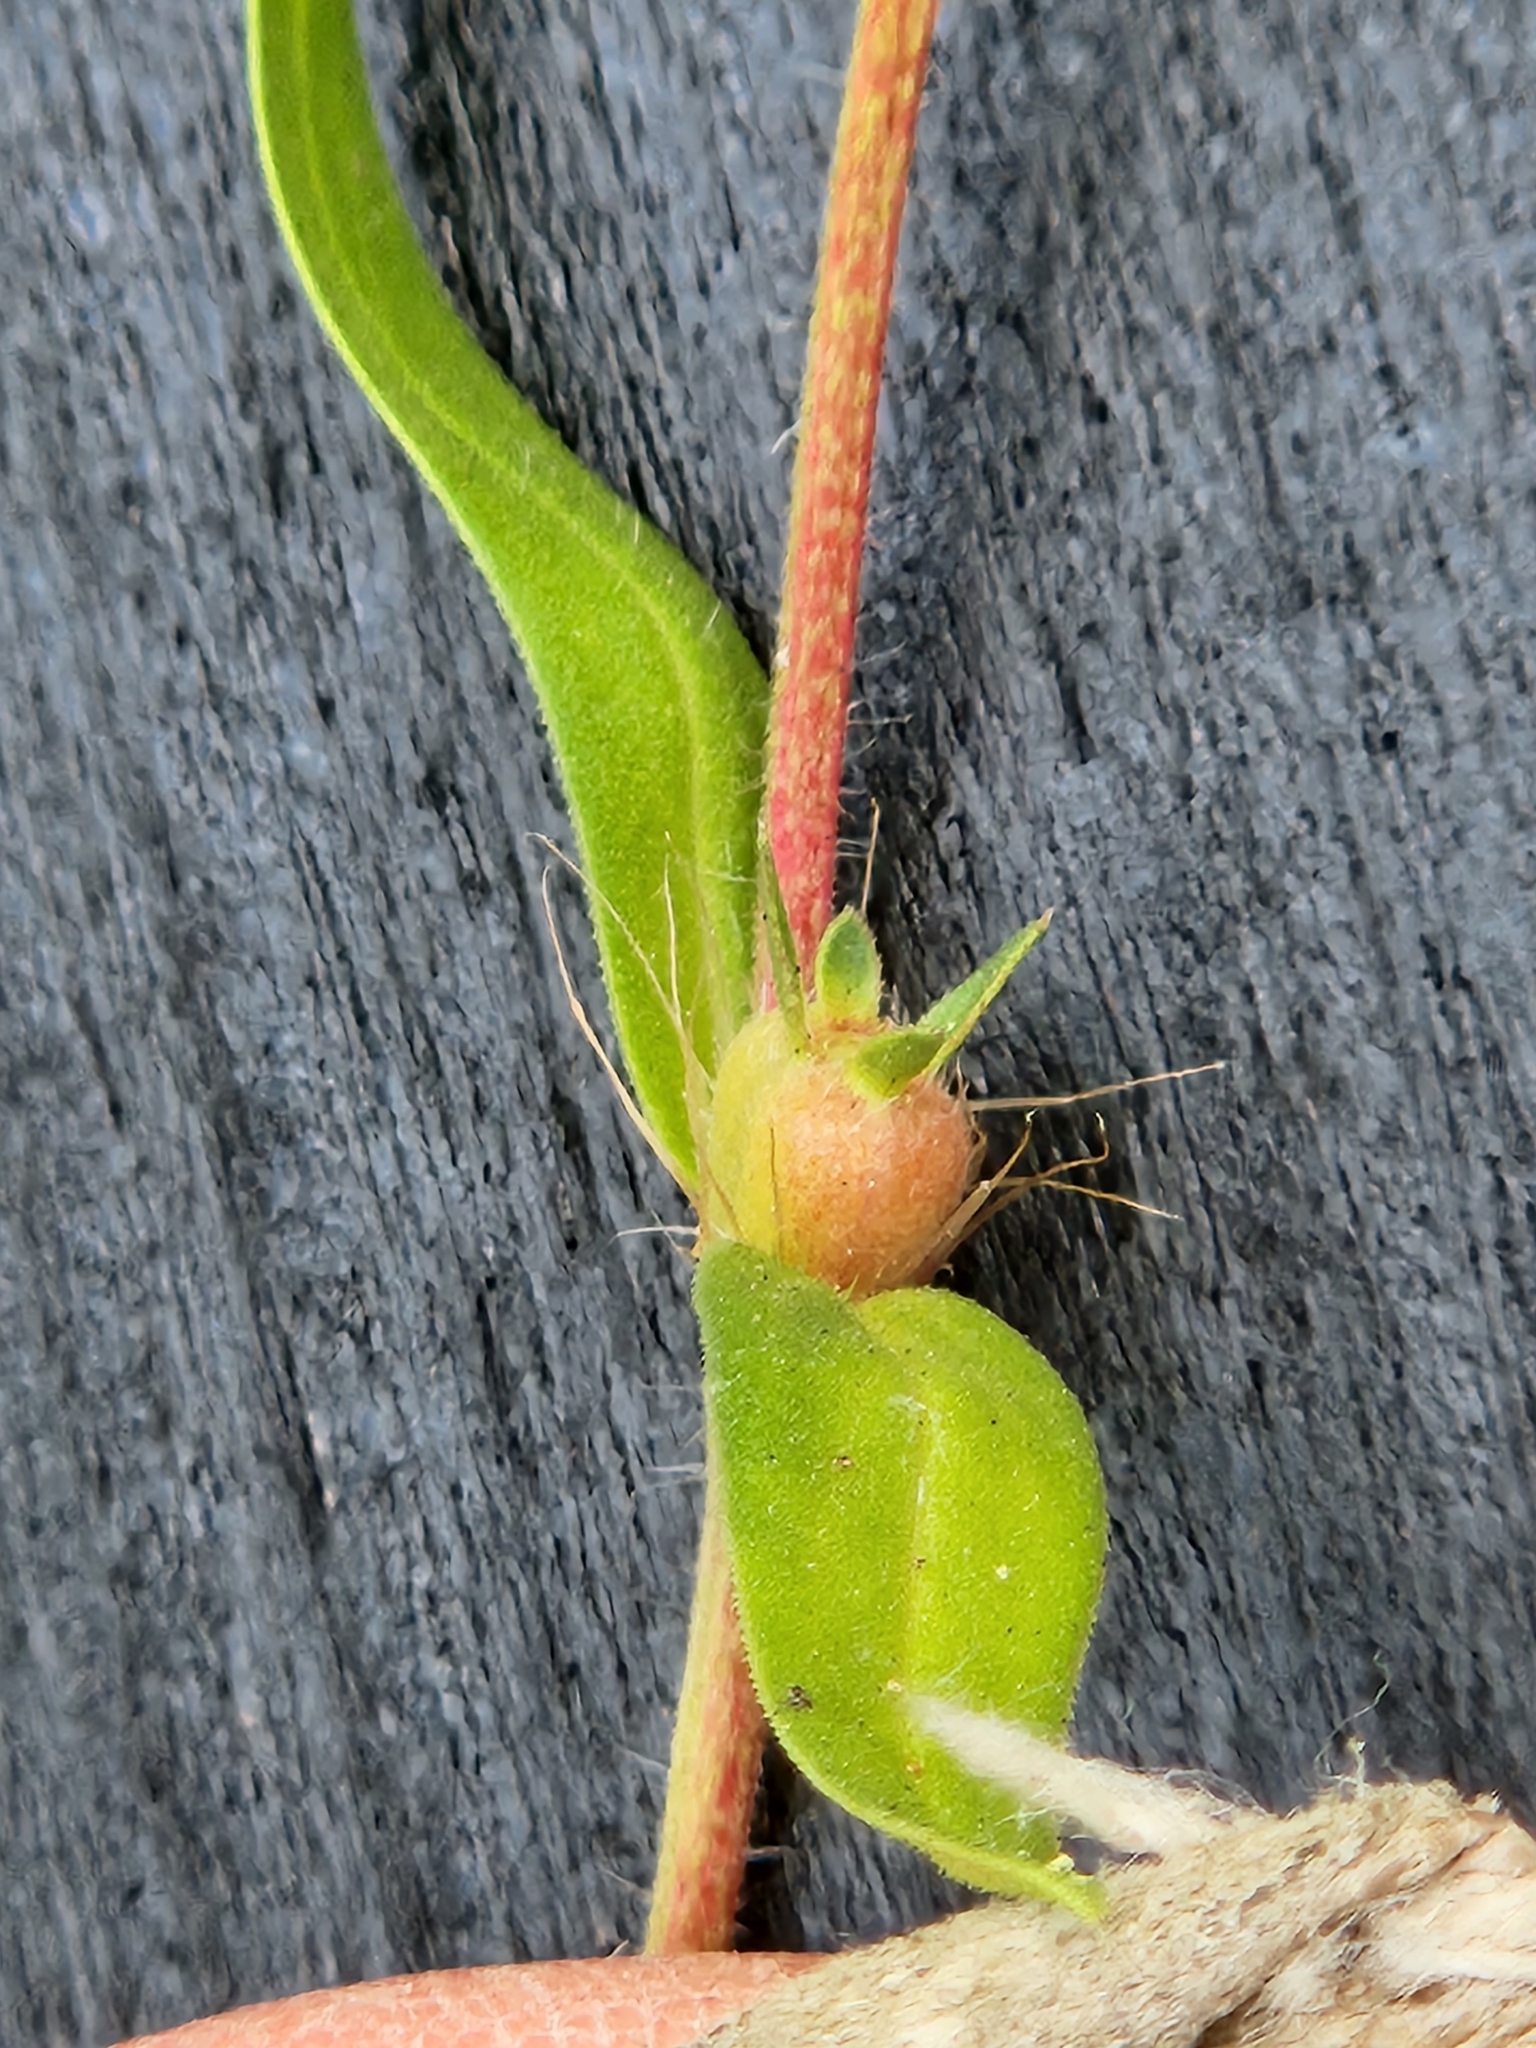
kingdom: Plantae
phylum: Tracheophyta
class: Magnoliopsida
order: Gentianales
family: Rubiaceae
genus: Hexasepalum
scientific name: Hexasepalum teres
